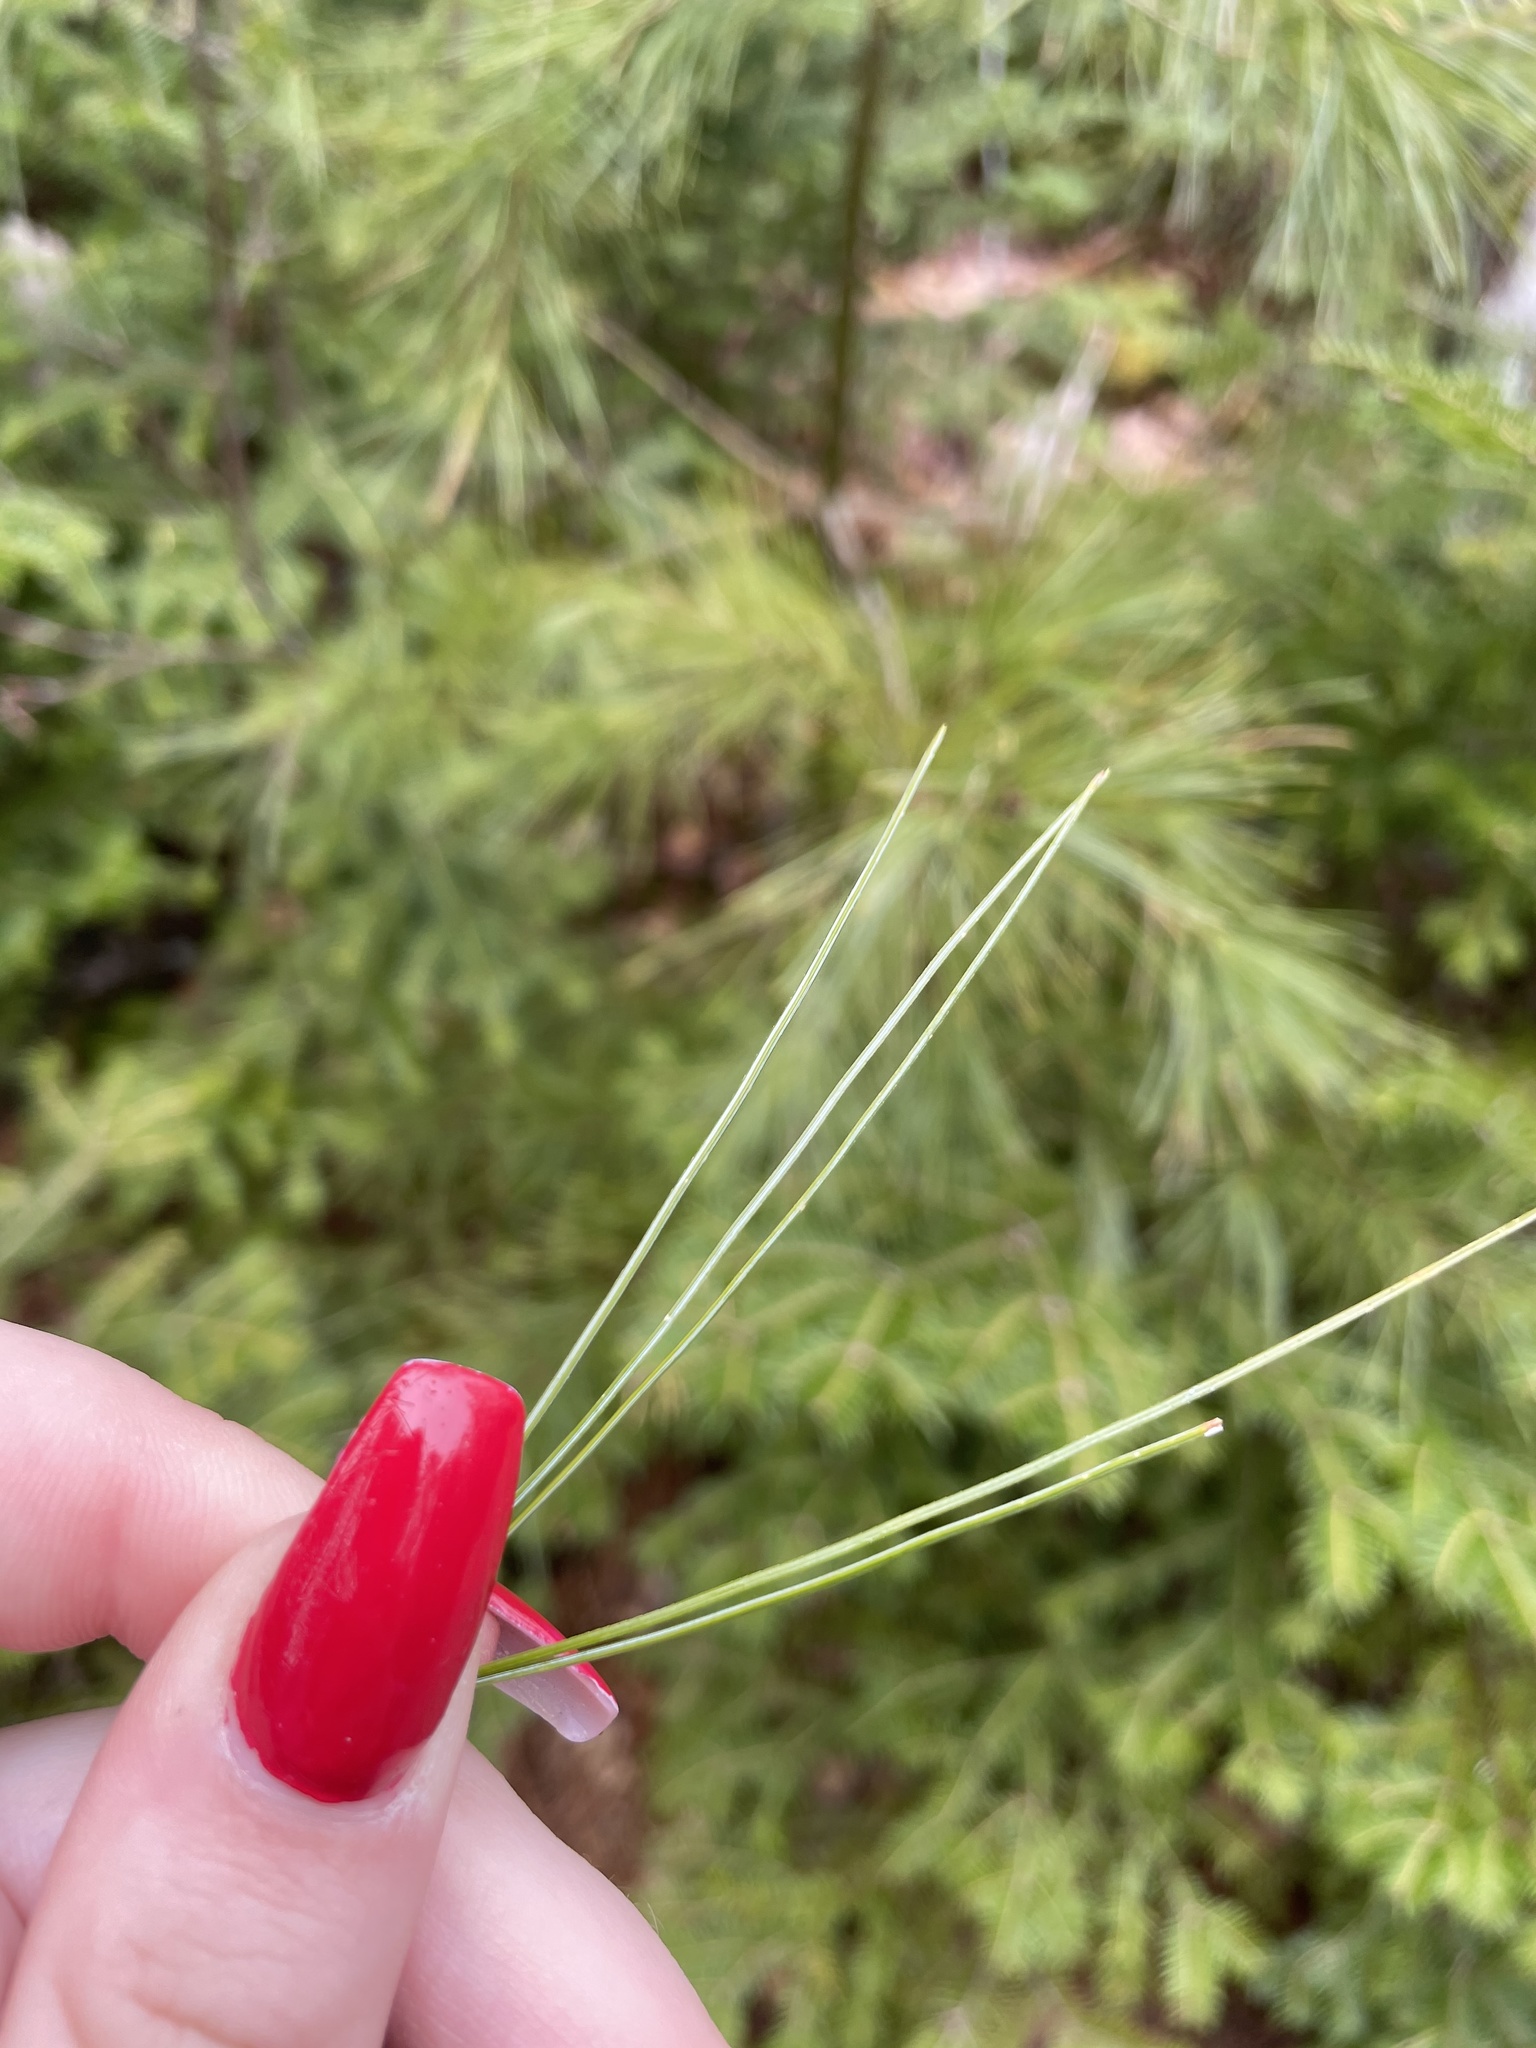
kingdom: Plantae
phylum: Tracheophyta
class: Pinopsida
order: Pinales
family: Pinaceae
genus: Pinus
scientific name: Pinus strobus
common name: Weymouth pine
